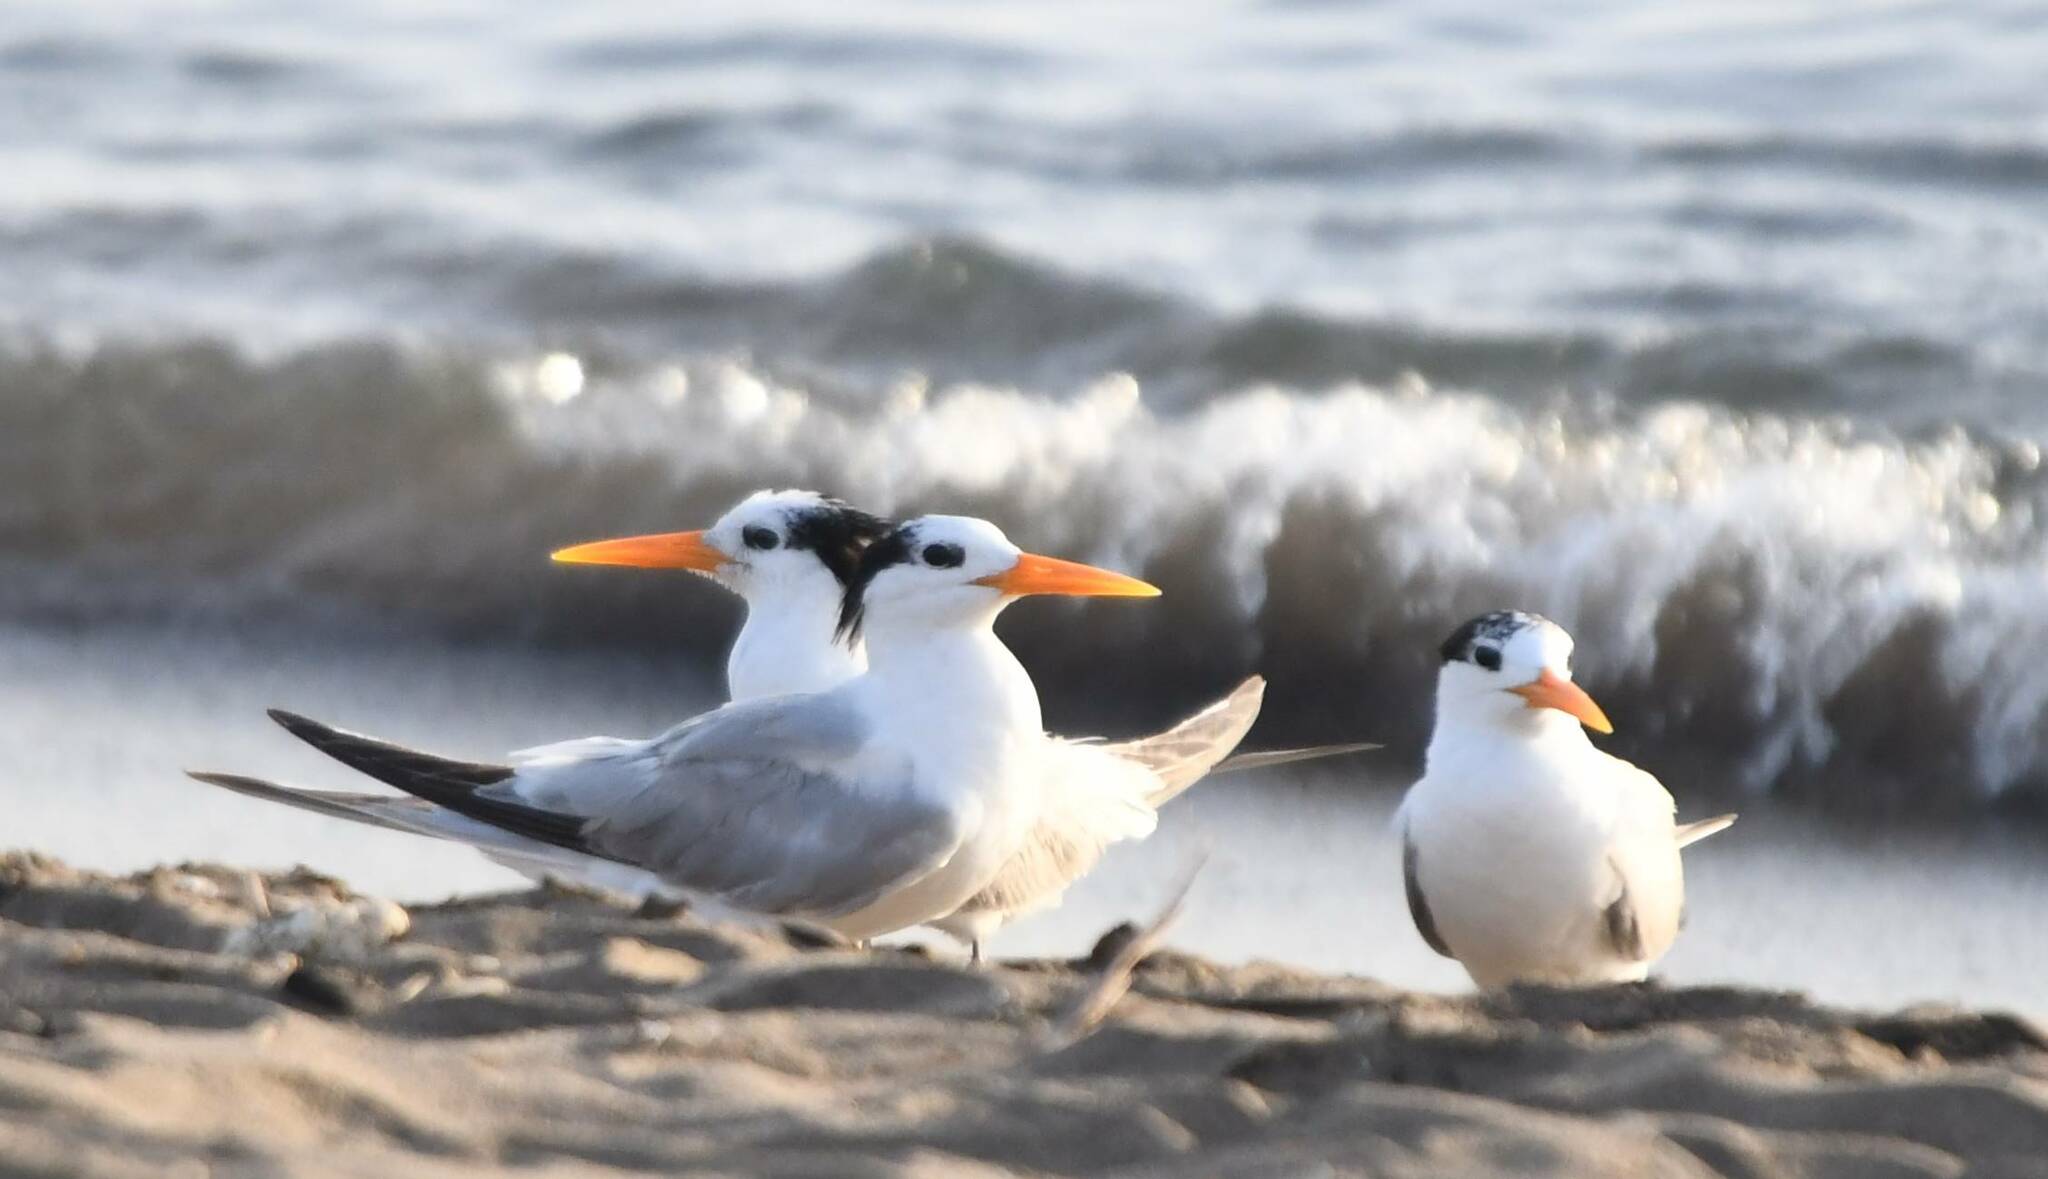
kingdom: Animalia
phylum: Chordata
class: Aves
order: Charadriiformes
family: Laridae
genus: Thalasseus
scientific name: Thalasseus bengalensis
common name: Lesser crested tern
